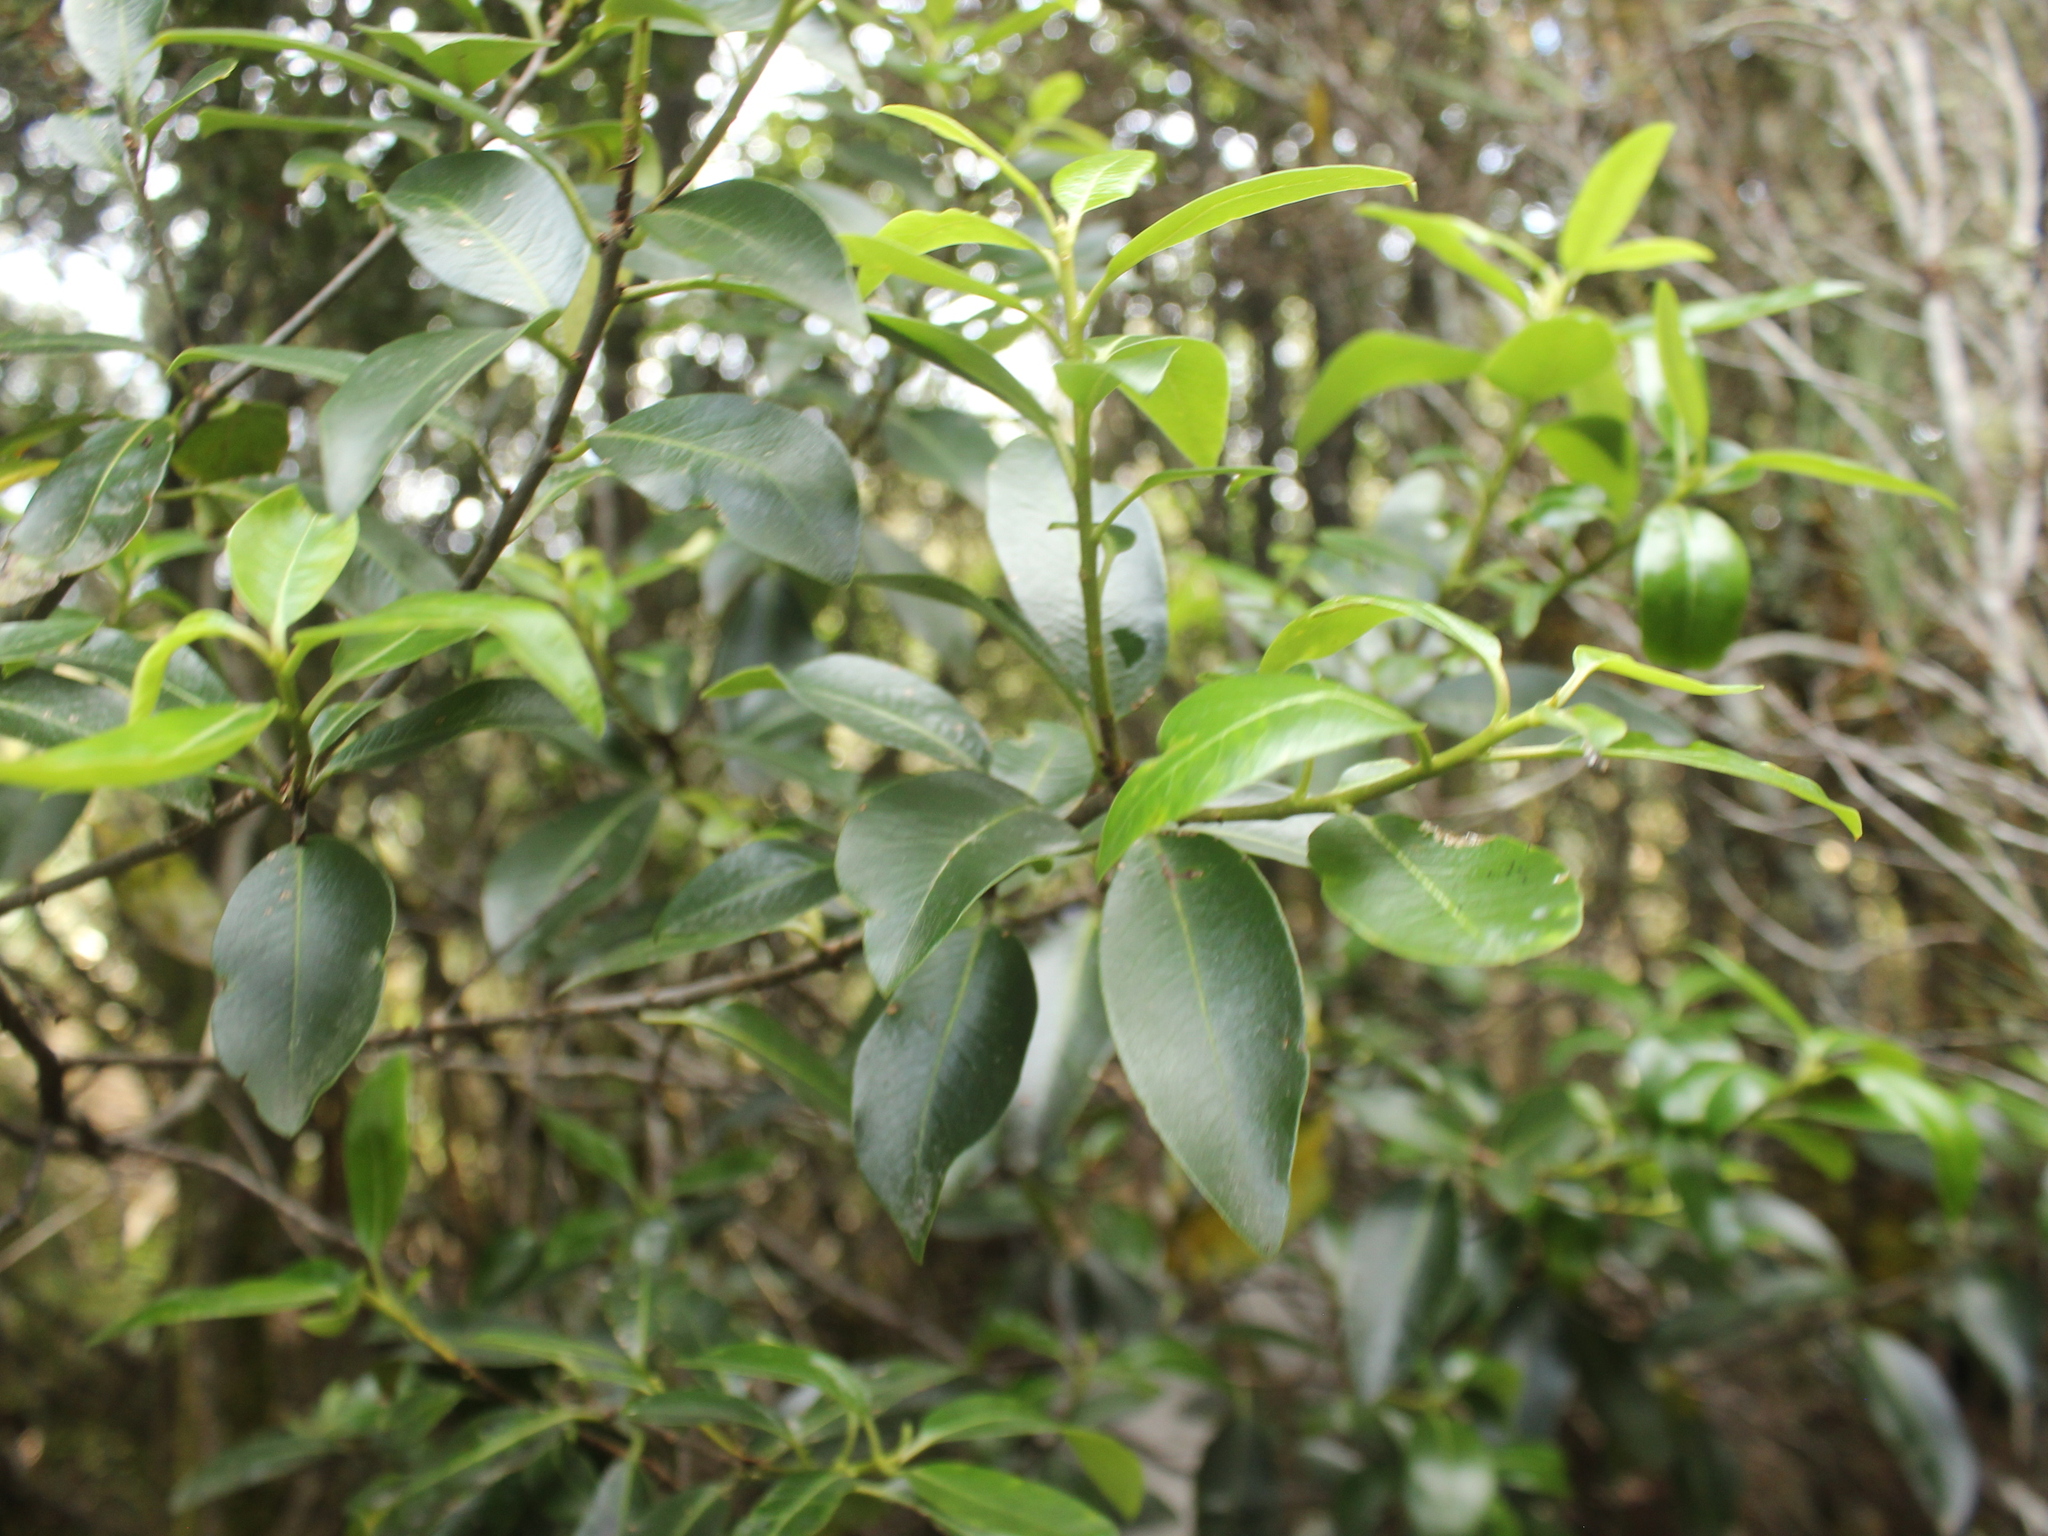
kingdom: Plantae
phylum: Tracheophyta
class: Magnoliopsida
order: Apiales
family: Pittosporaceae
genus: Pittosporum
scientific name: Pittosporum colensoi
